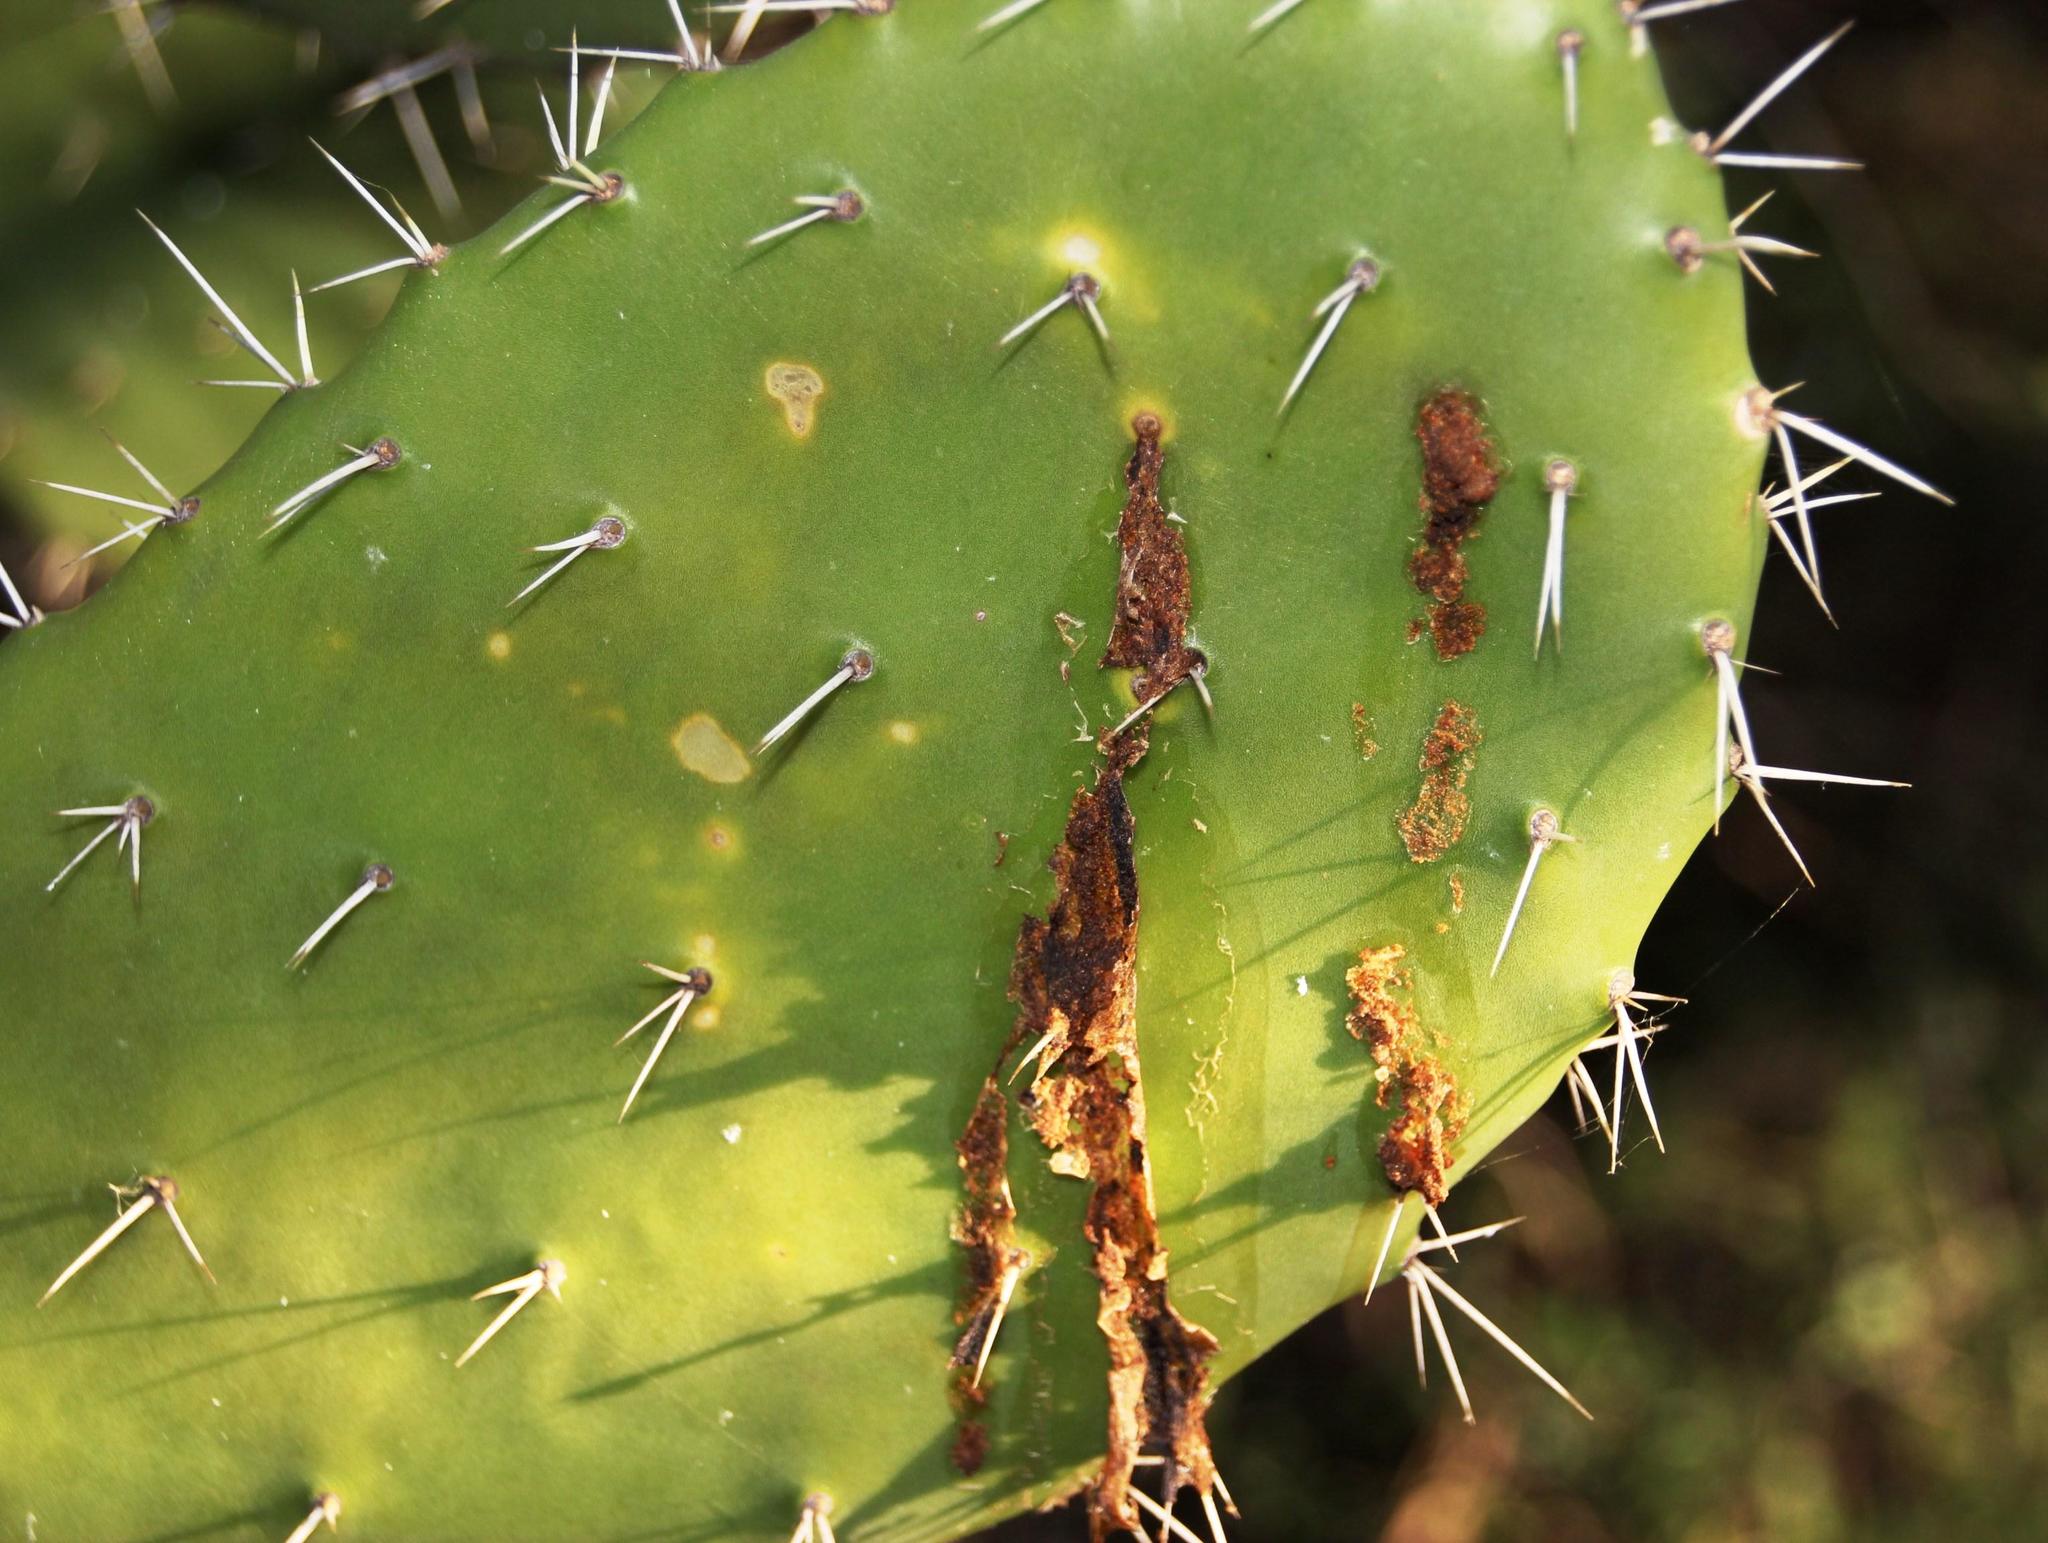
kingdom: Plantae
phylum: Tracheophyta
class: Magnoliopsida
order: Caryophyllales
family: Cactaceae
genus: Opuntia
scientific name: Opuntia ficus-indica
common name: Barbary fig
